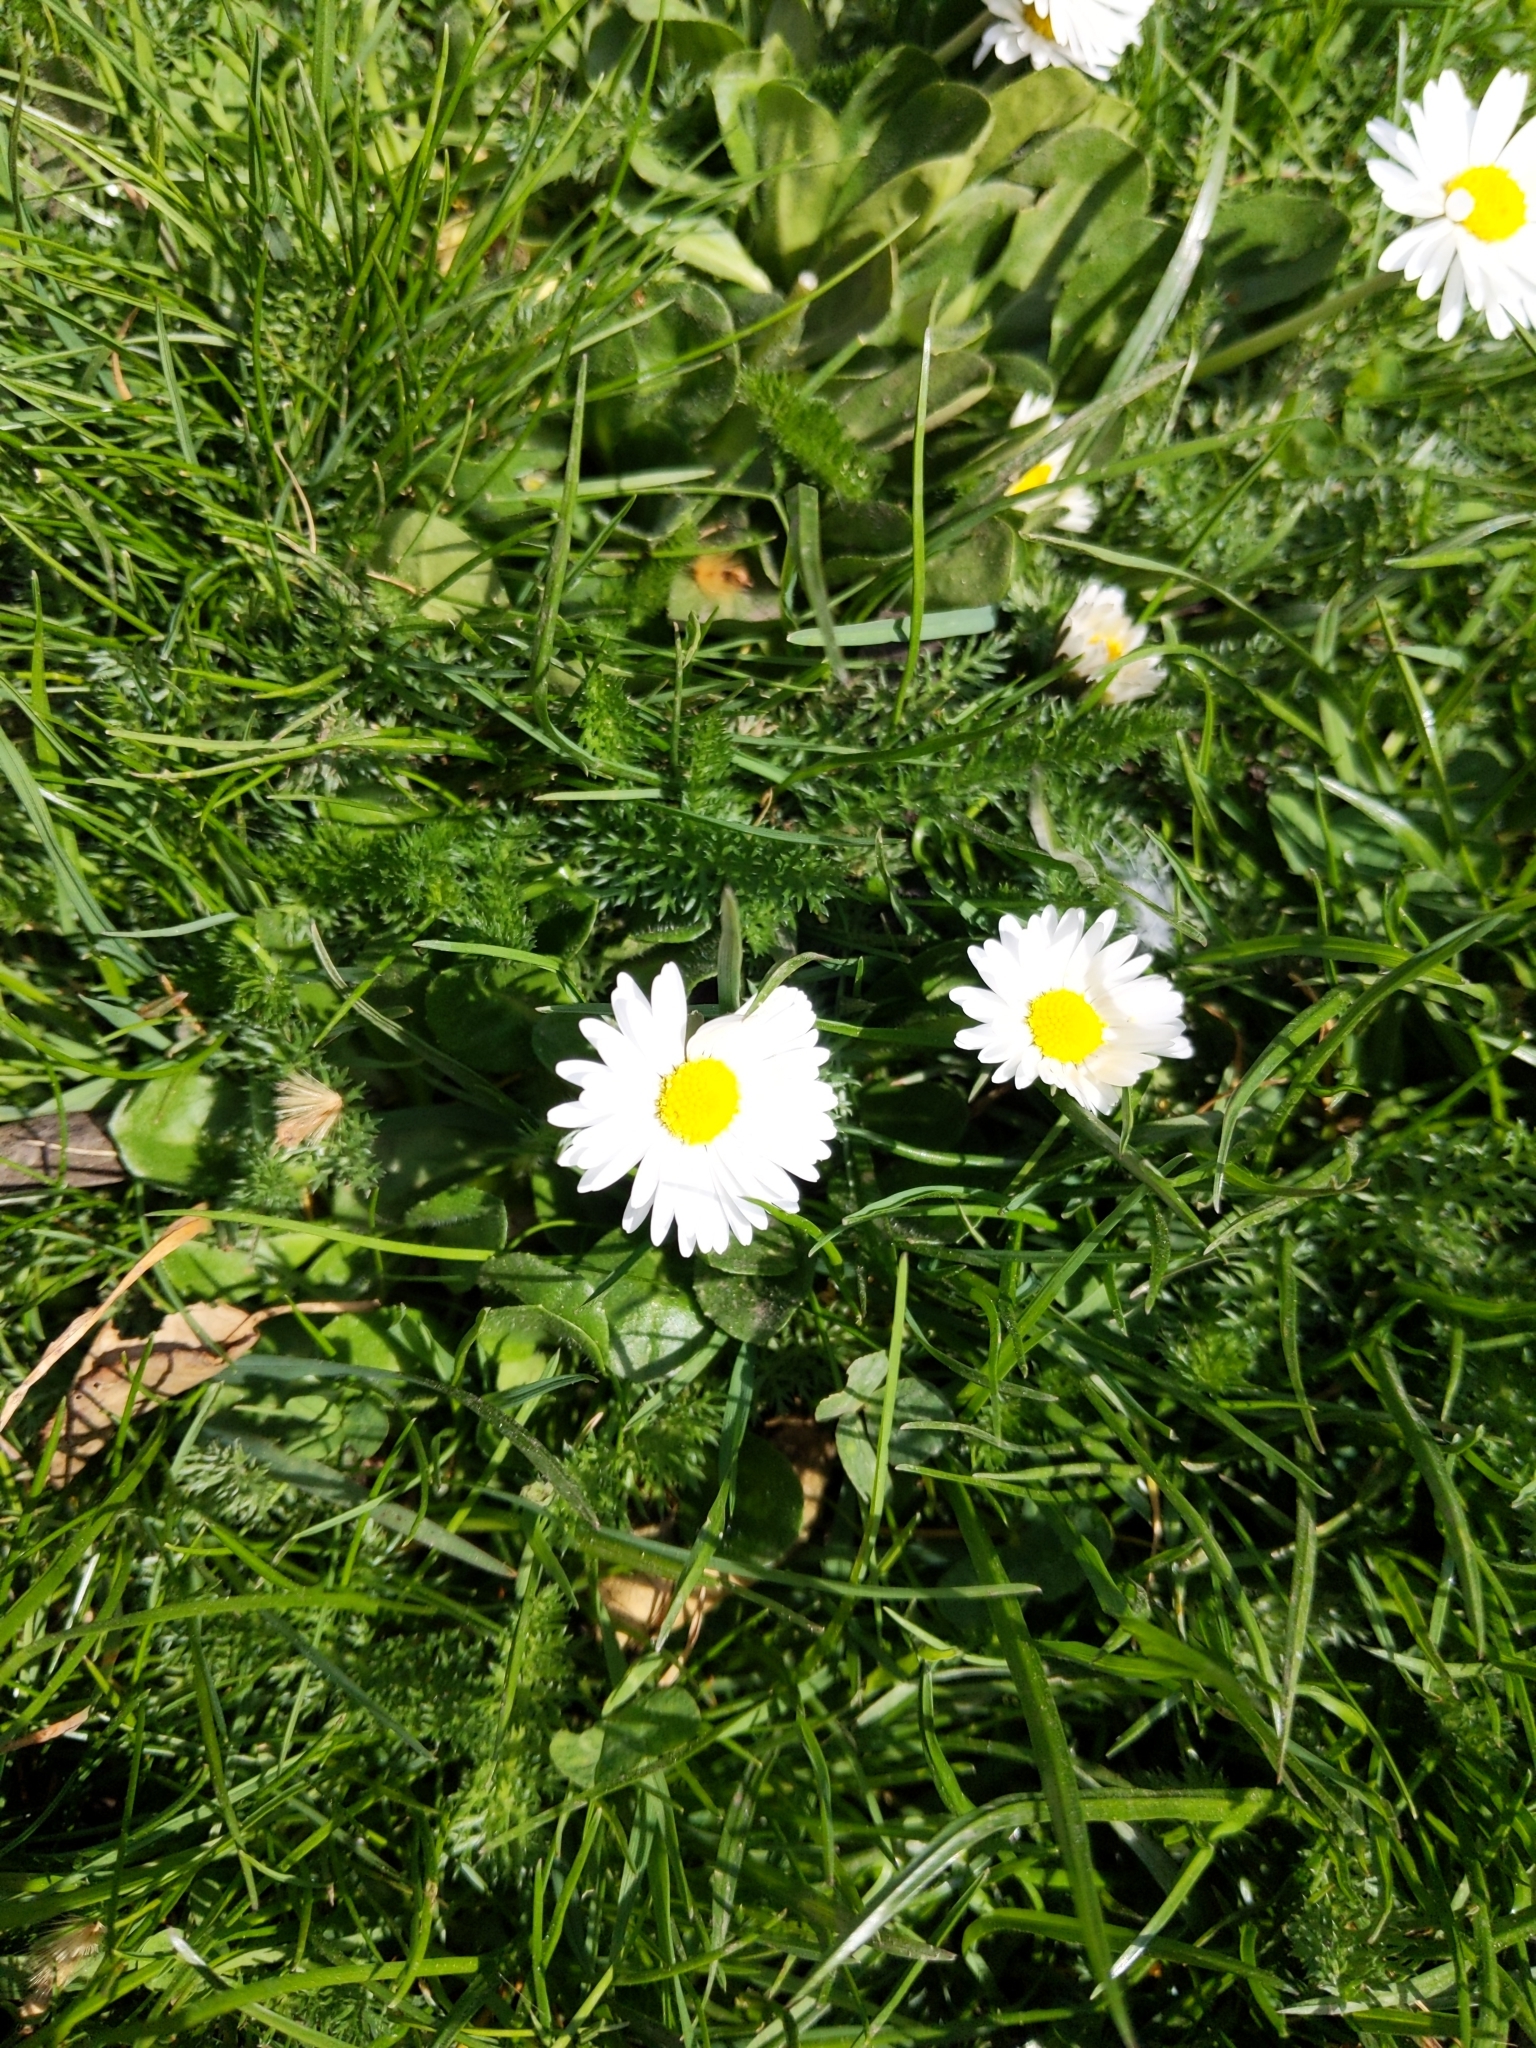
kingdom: Plantae
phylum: Tracheophyta
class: Magnoliopsida
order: Asterales
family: Asteraceae
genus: Bellis
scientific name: Bellis perennis
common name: Lawndaisy
